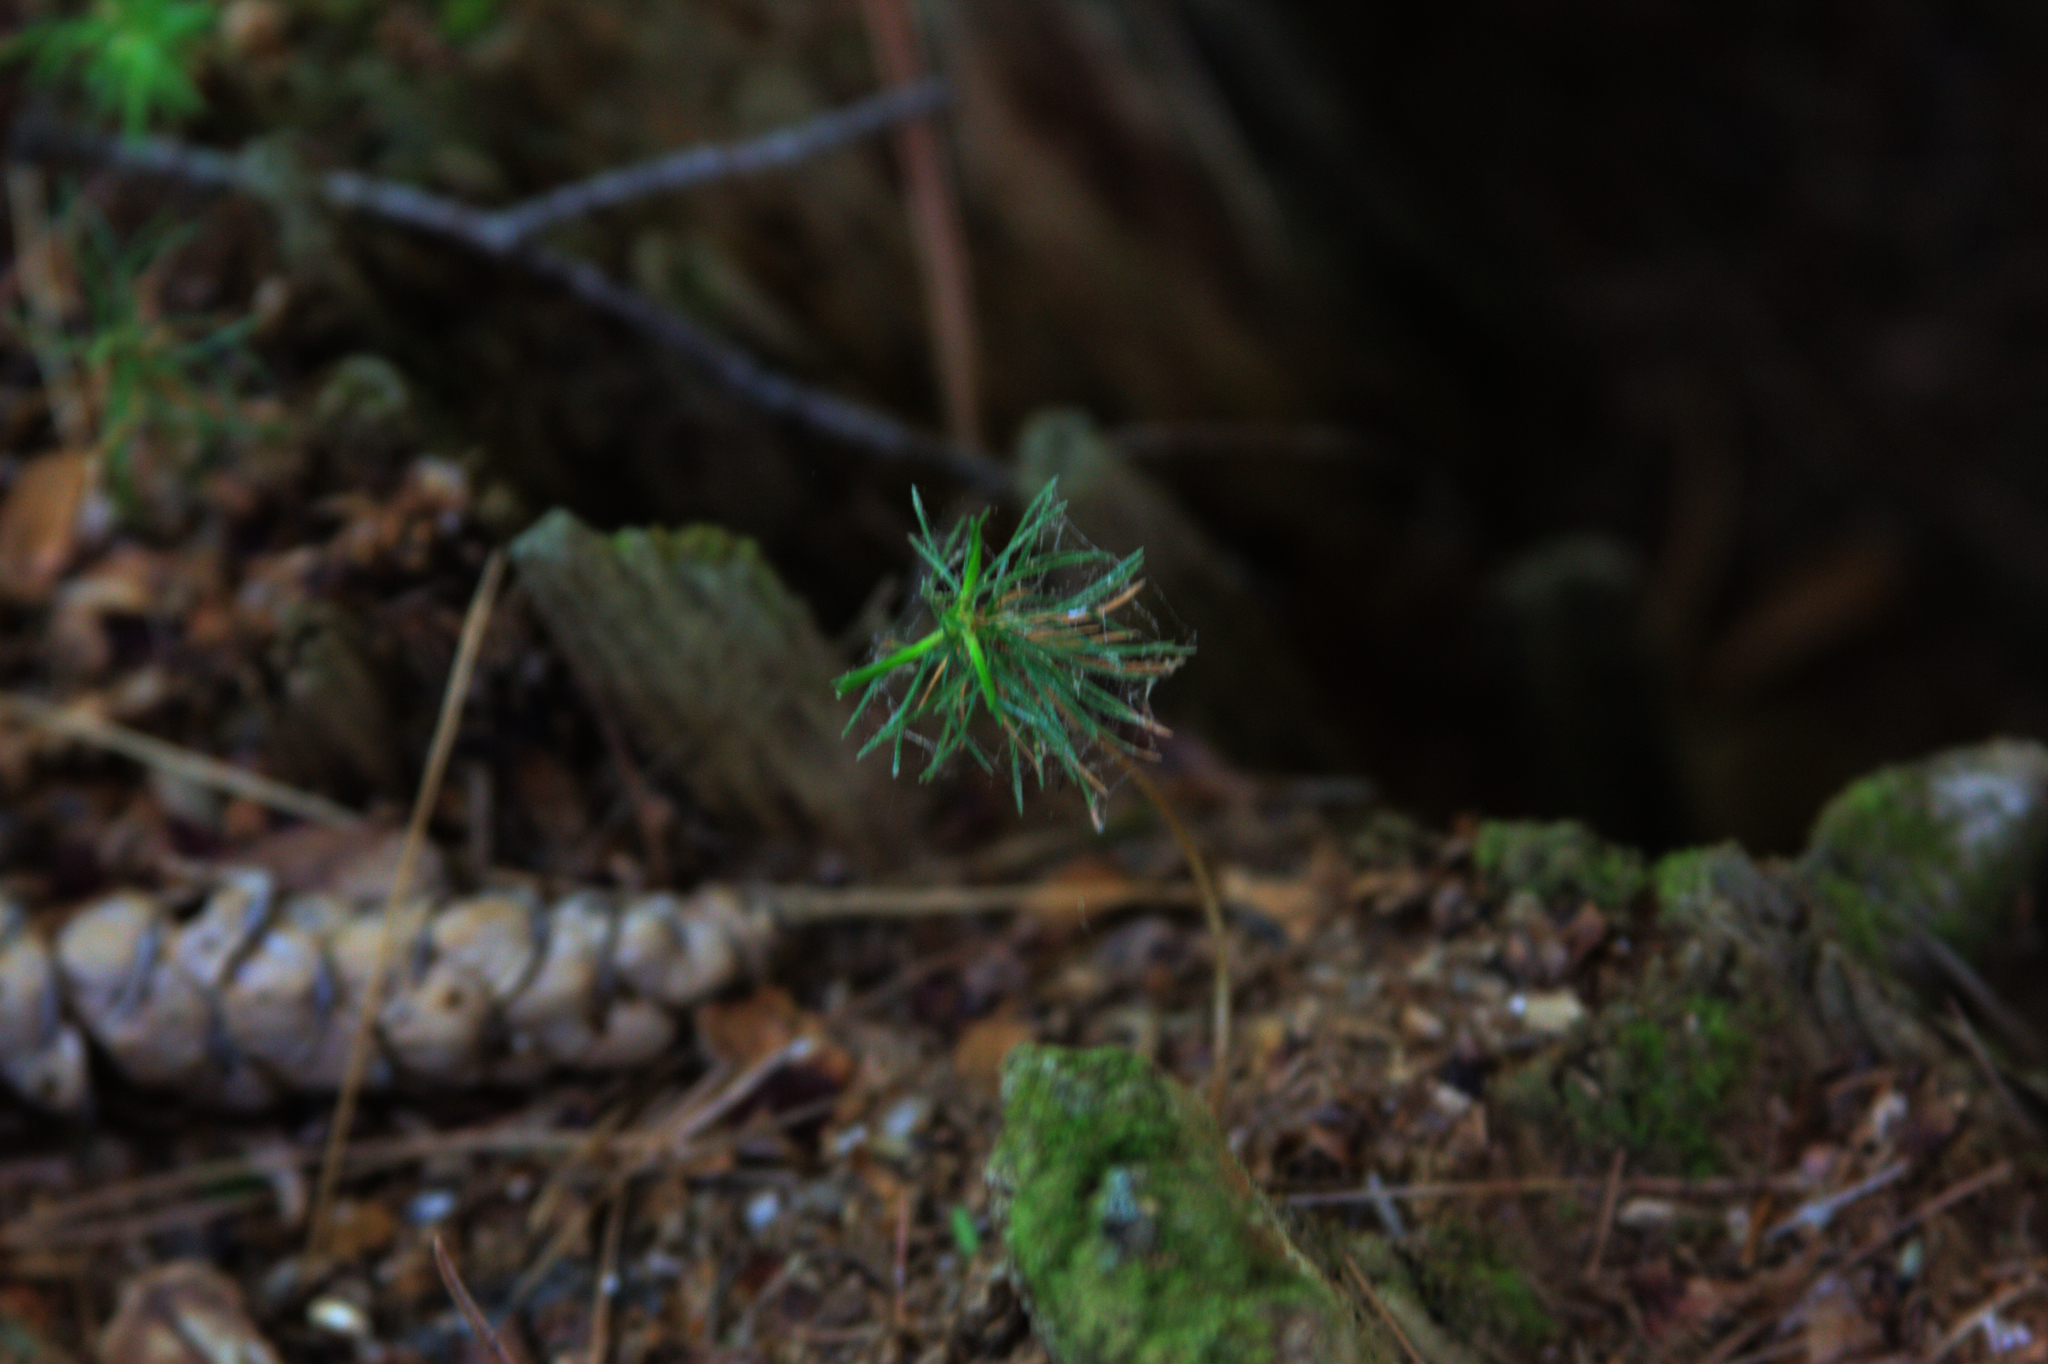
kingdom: Plantae
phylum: Tracheophyta
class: Pinopsida
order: Pinales
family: Pinaceae
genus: Tsuga
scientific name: Tsuga canadensis
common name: Eastern hemlock
